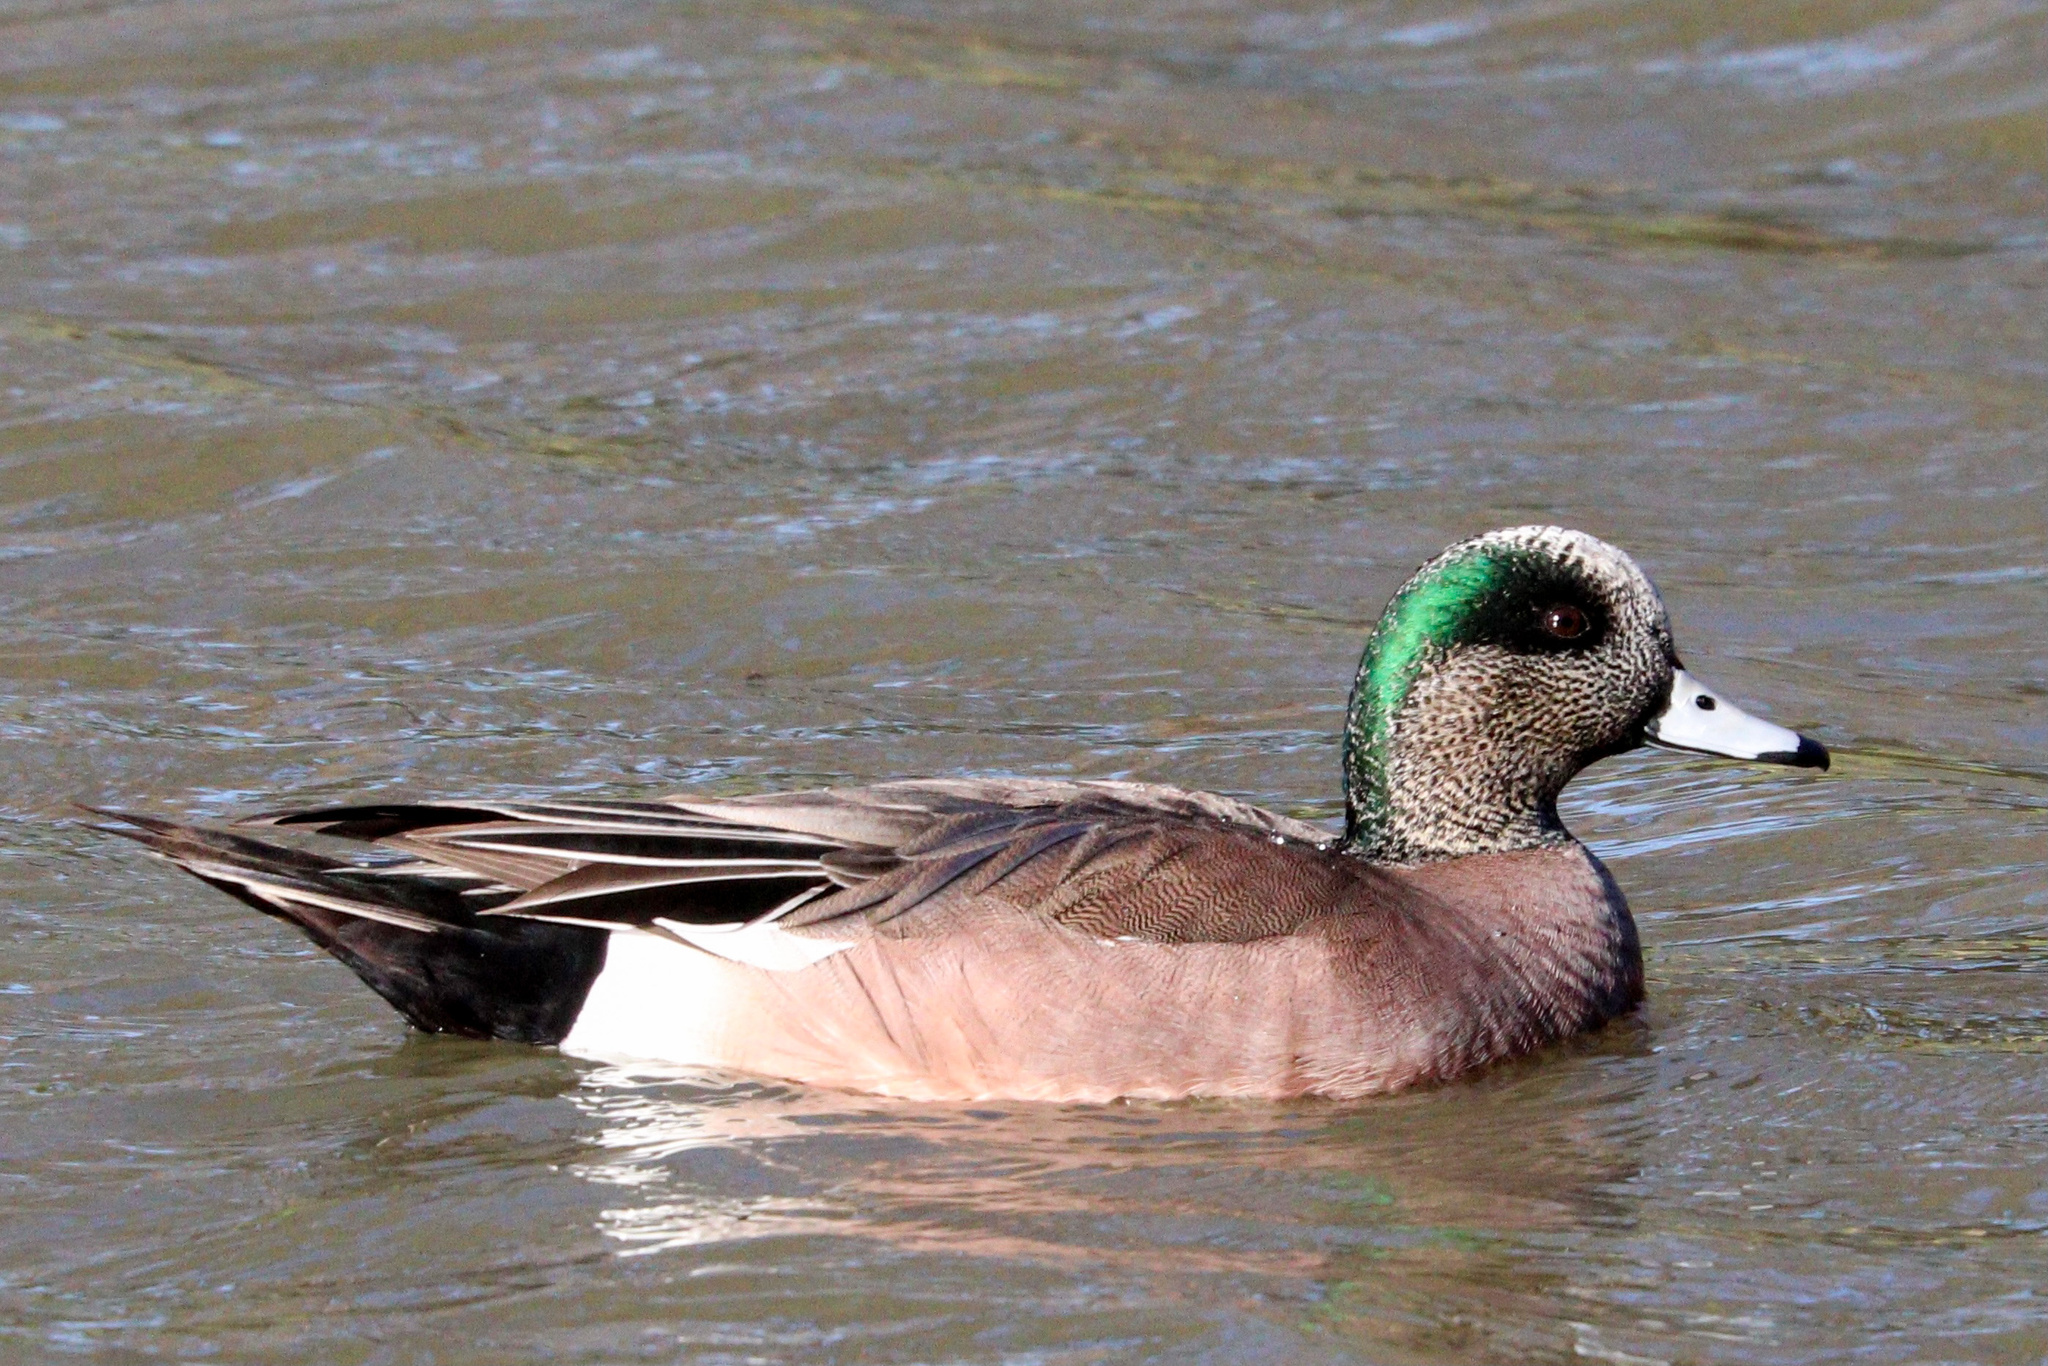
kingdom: Animalia
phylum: Chordata
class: Aves
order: Anseriformes
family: Anatidae
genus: Mareca
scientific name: Mareca americana
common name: American wigeon
